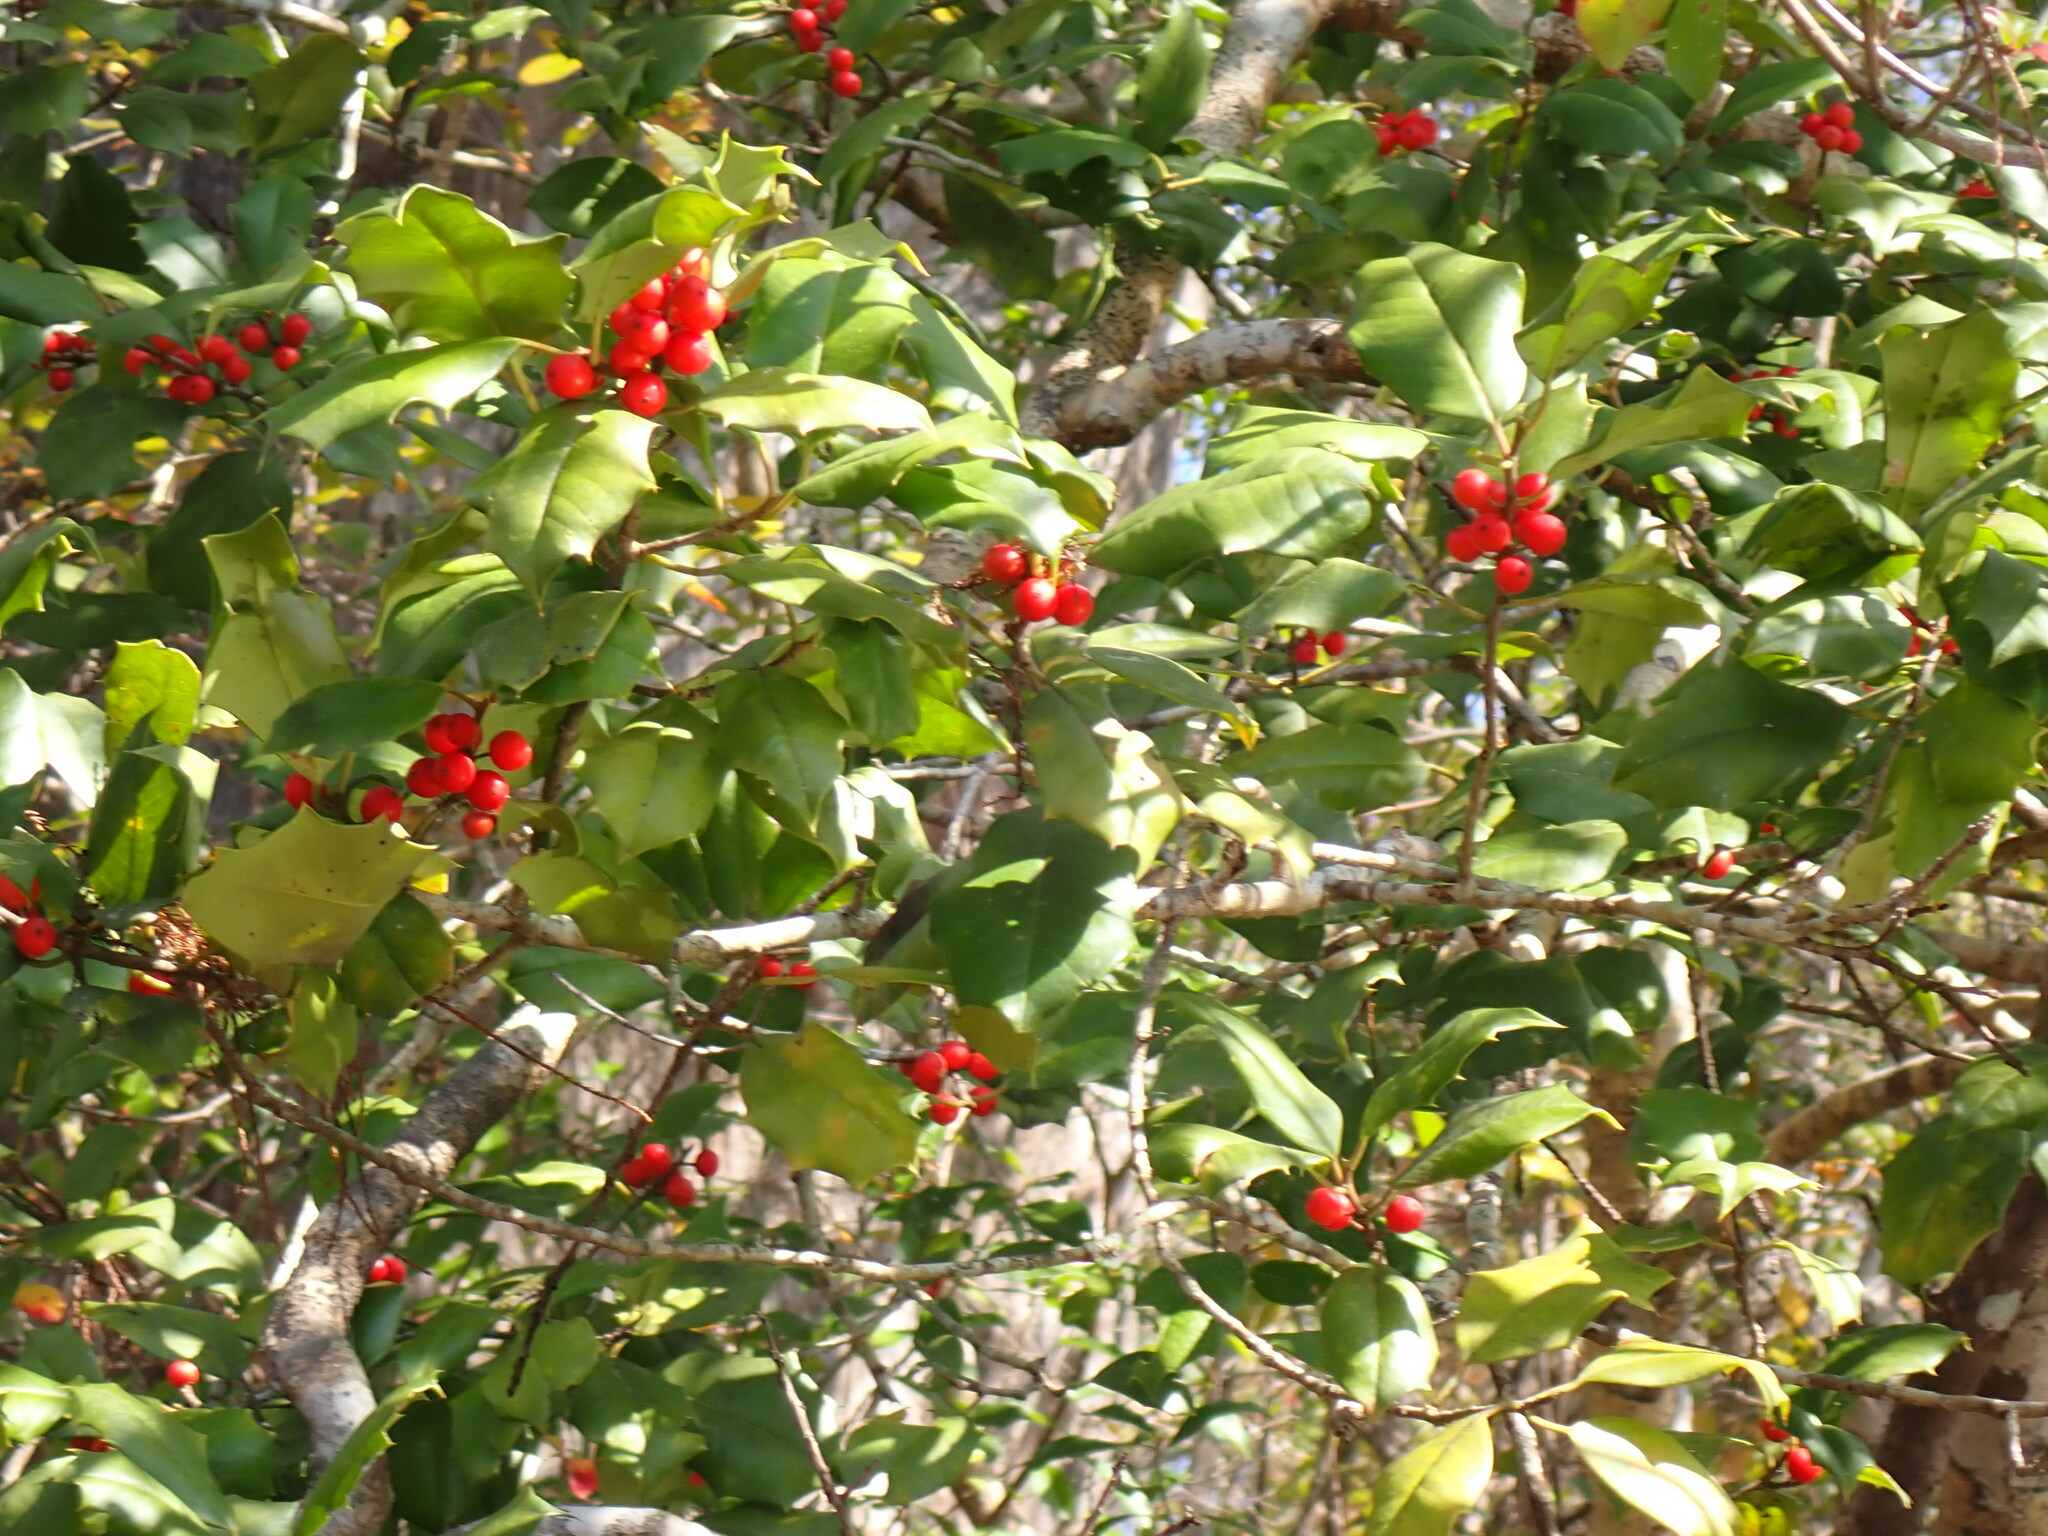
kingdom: Plantae
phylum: Tracheophyta
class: Magnoliopsida
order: Aquifoliales
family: Aquifoliaceae
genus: Ilex
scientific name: Ilex opaca
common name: American holly
